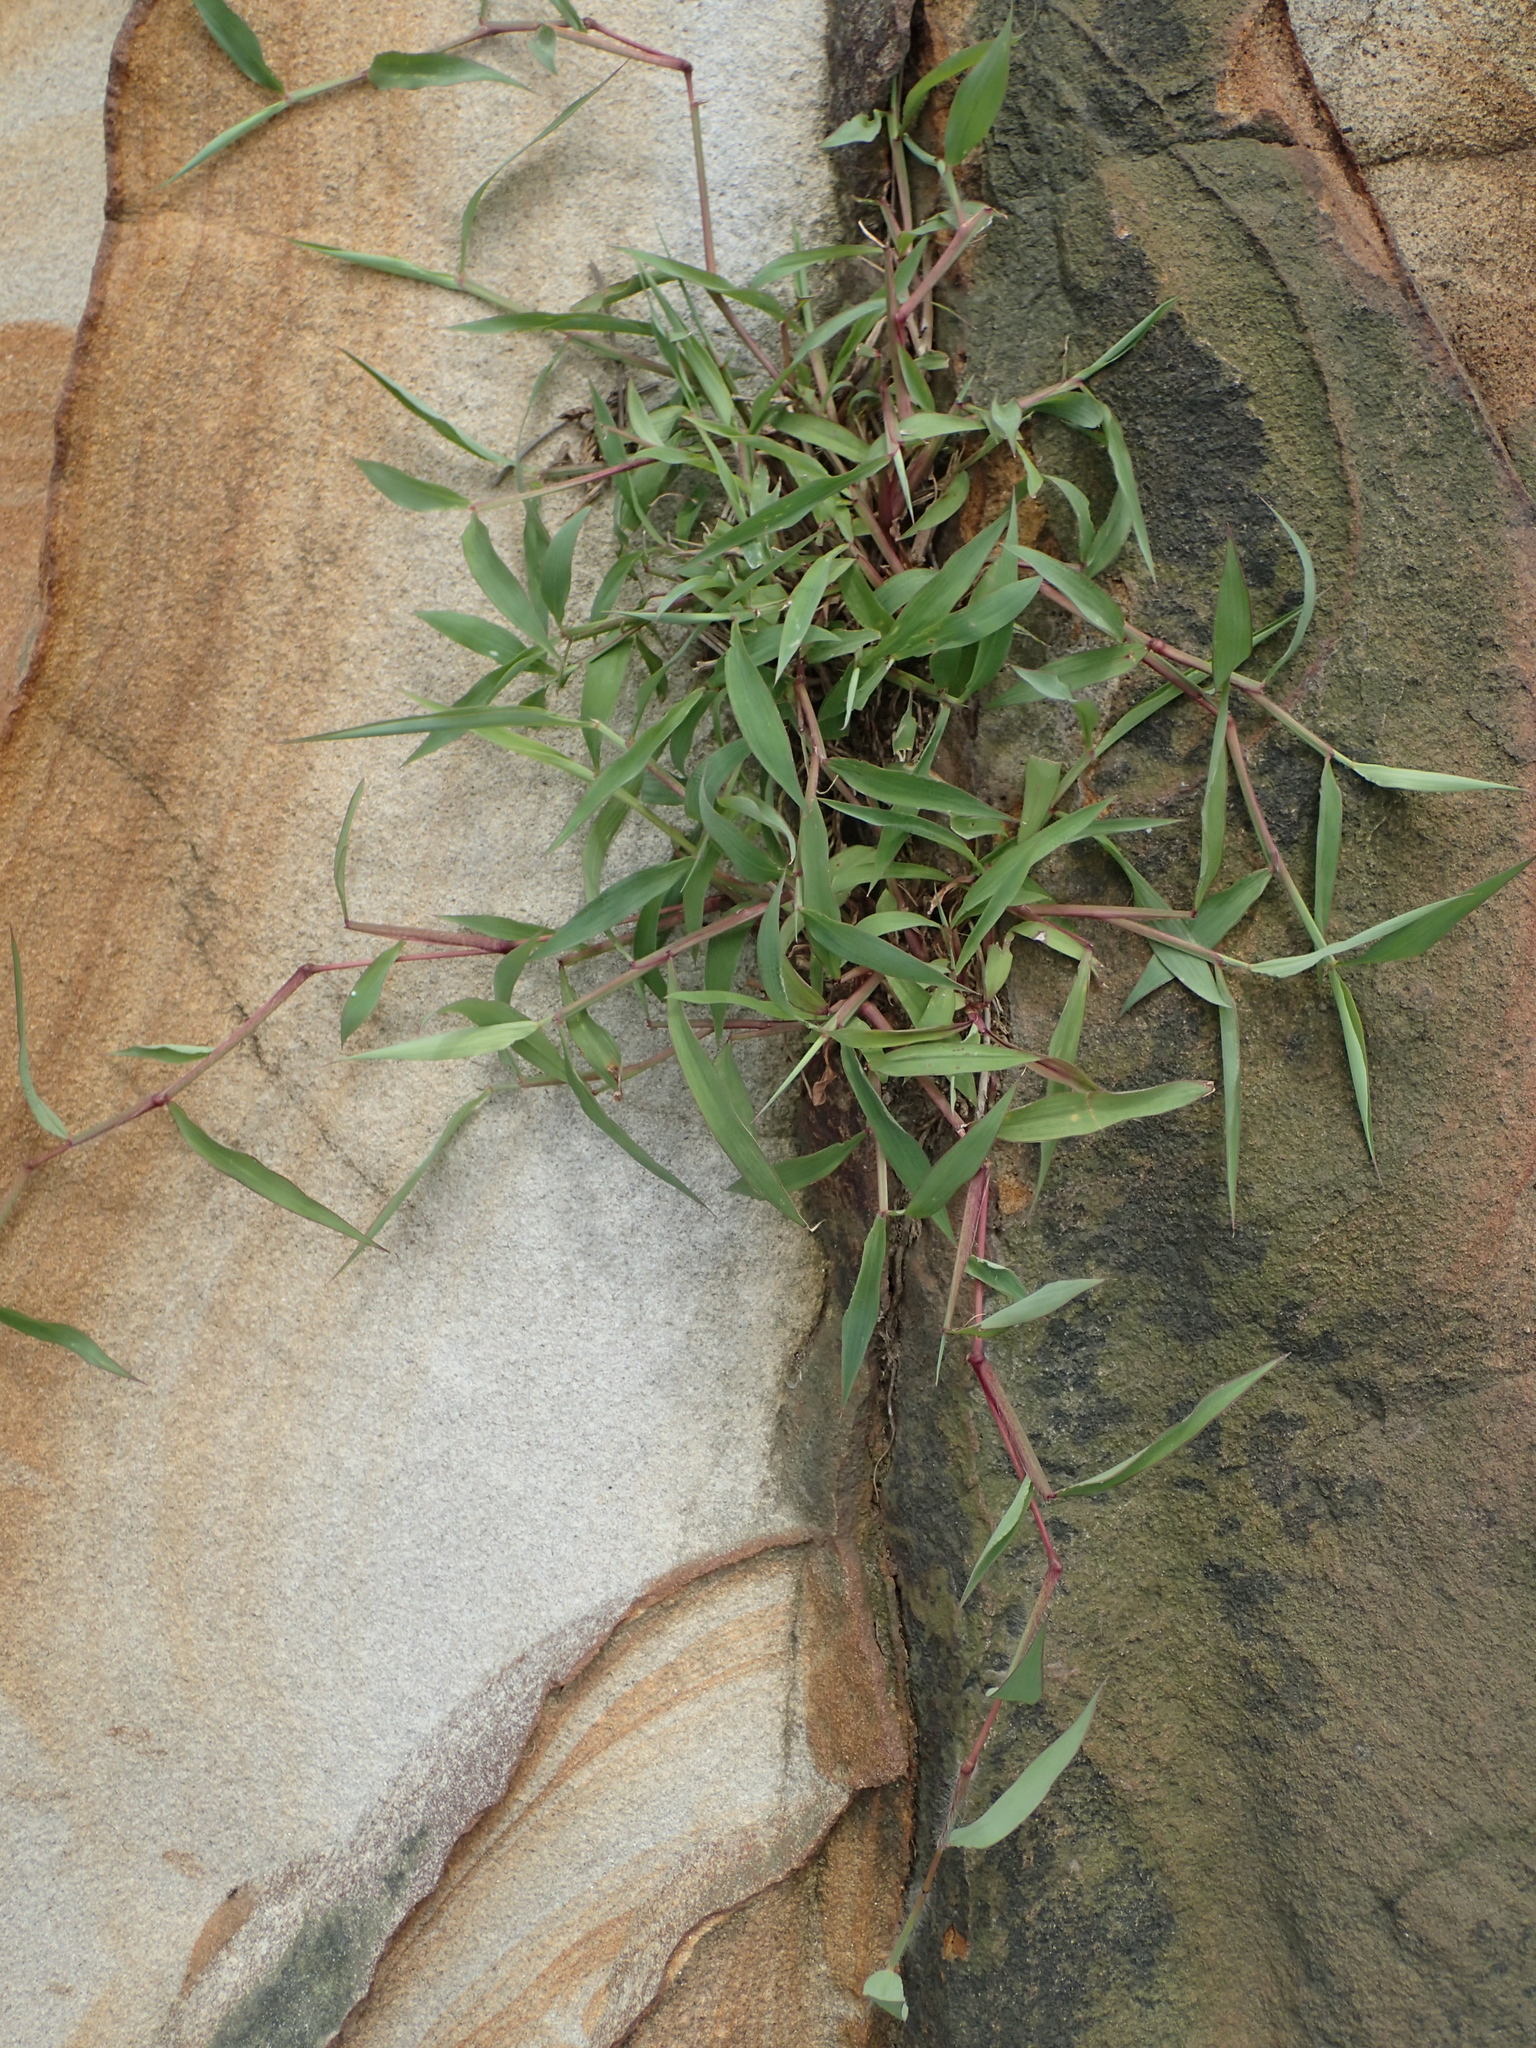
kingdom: Plantae
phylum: Tracheophyta
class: Liliopsida
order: Poales
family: Poaceae
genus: Ischaemum
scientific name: Ischaemum ciliare
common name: Grass
